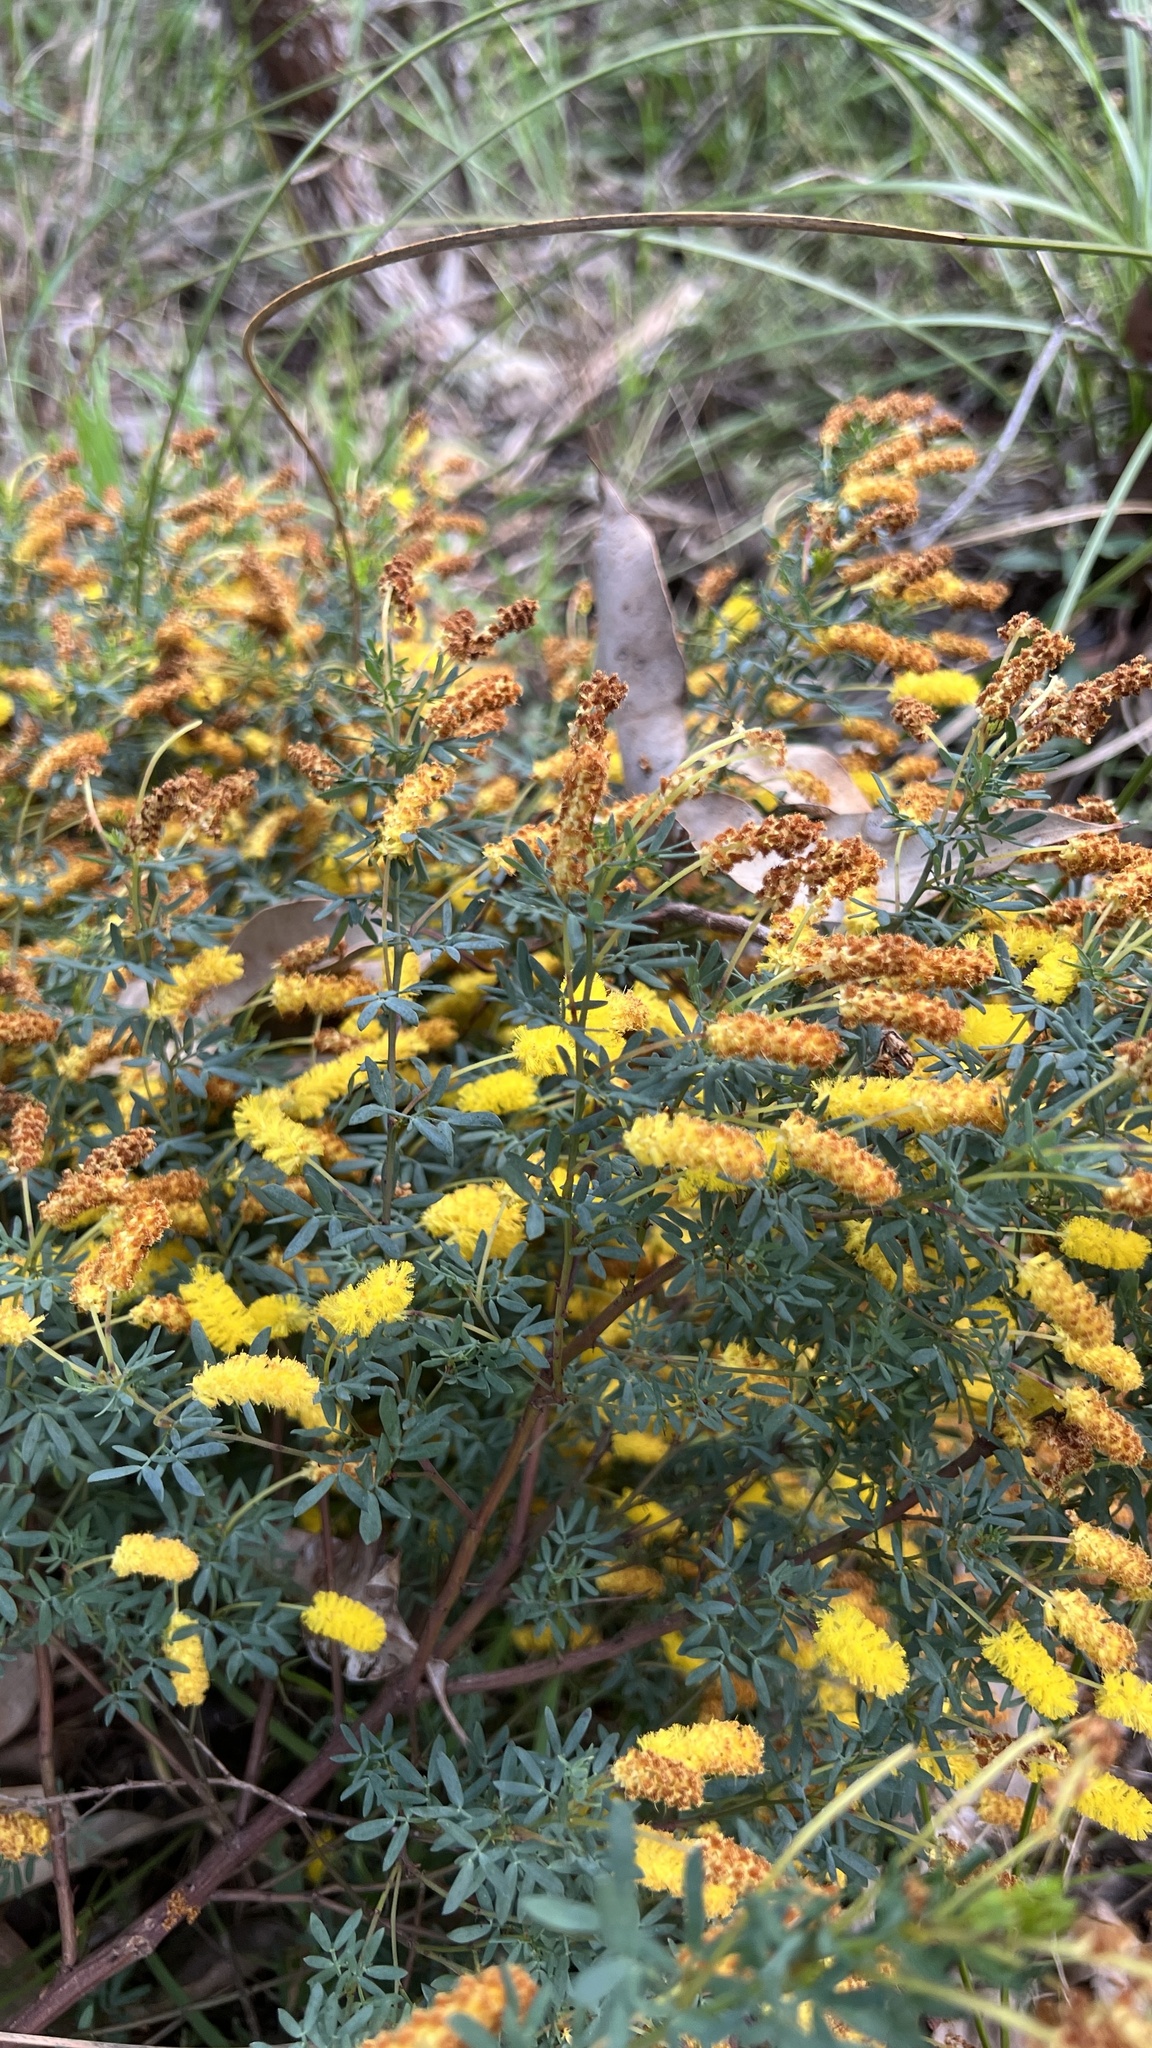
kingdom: Plantae
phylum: Tracheophyta
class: Magnoliopsida
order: Fabales
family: Fabaceae
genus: Acacia
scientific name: Acacia drummondii
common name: Drummond's wattle
